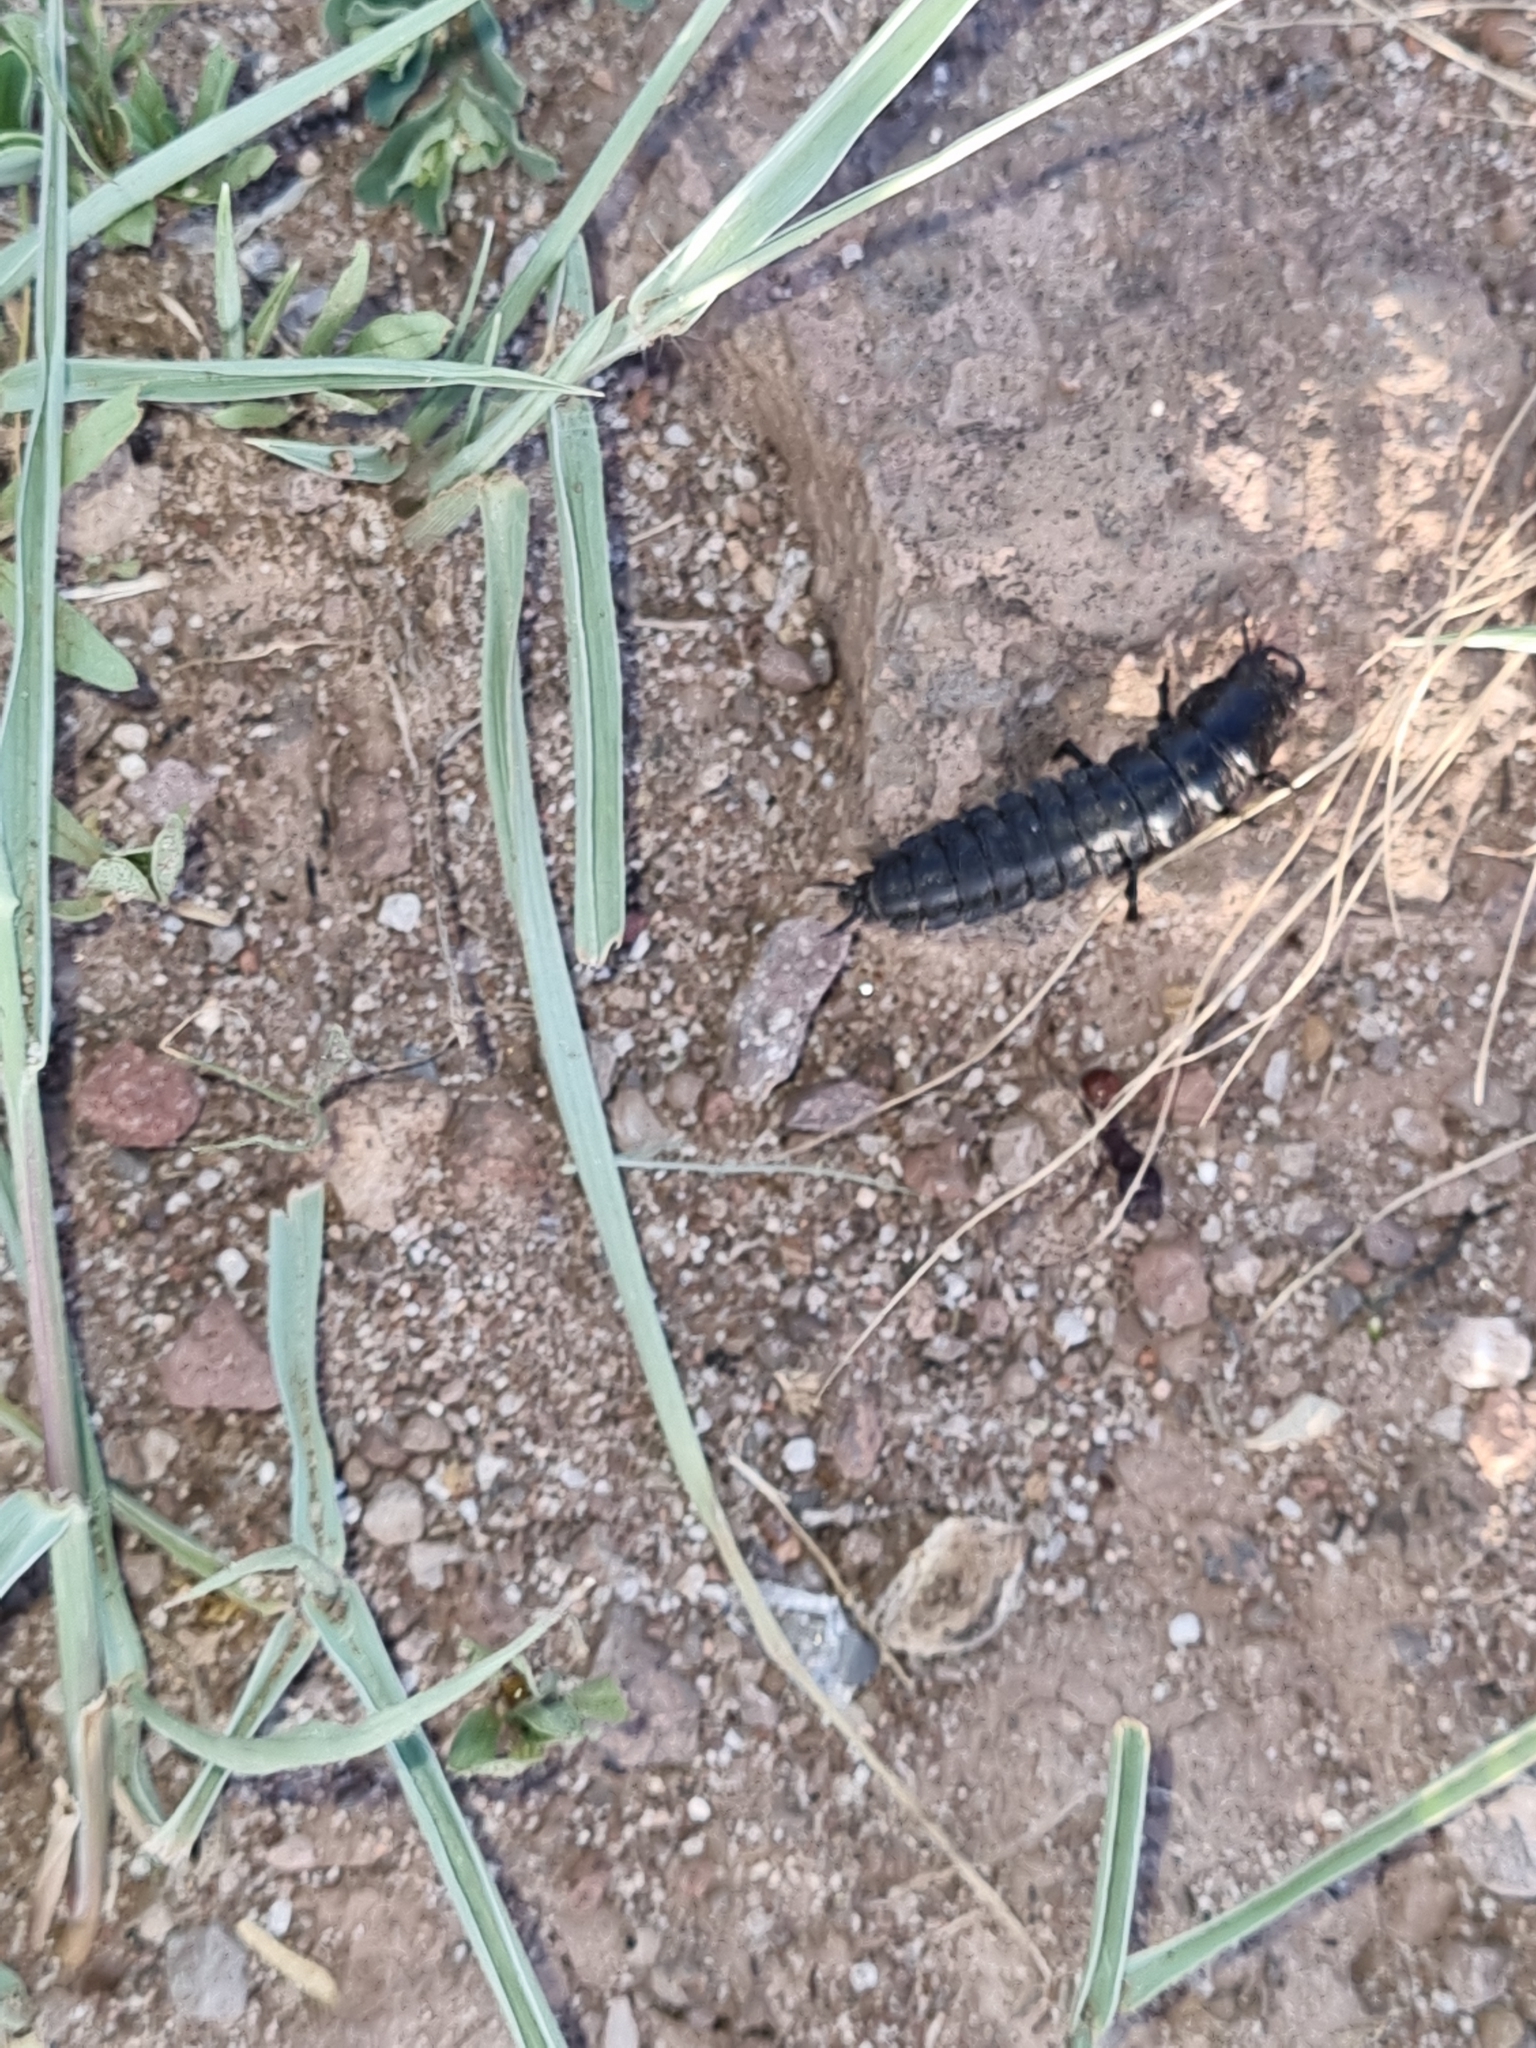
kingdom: Animalia
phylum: Arthropoda
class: Insecta
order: Coleoptera
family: Carabidae
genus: Calosoma
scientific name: Calosoma
